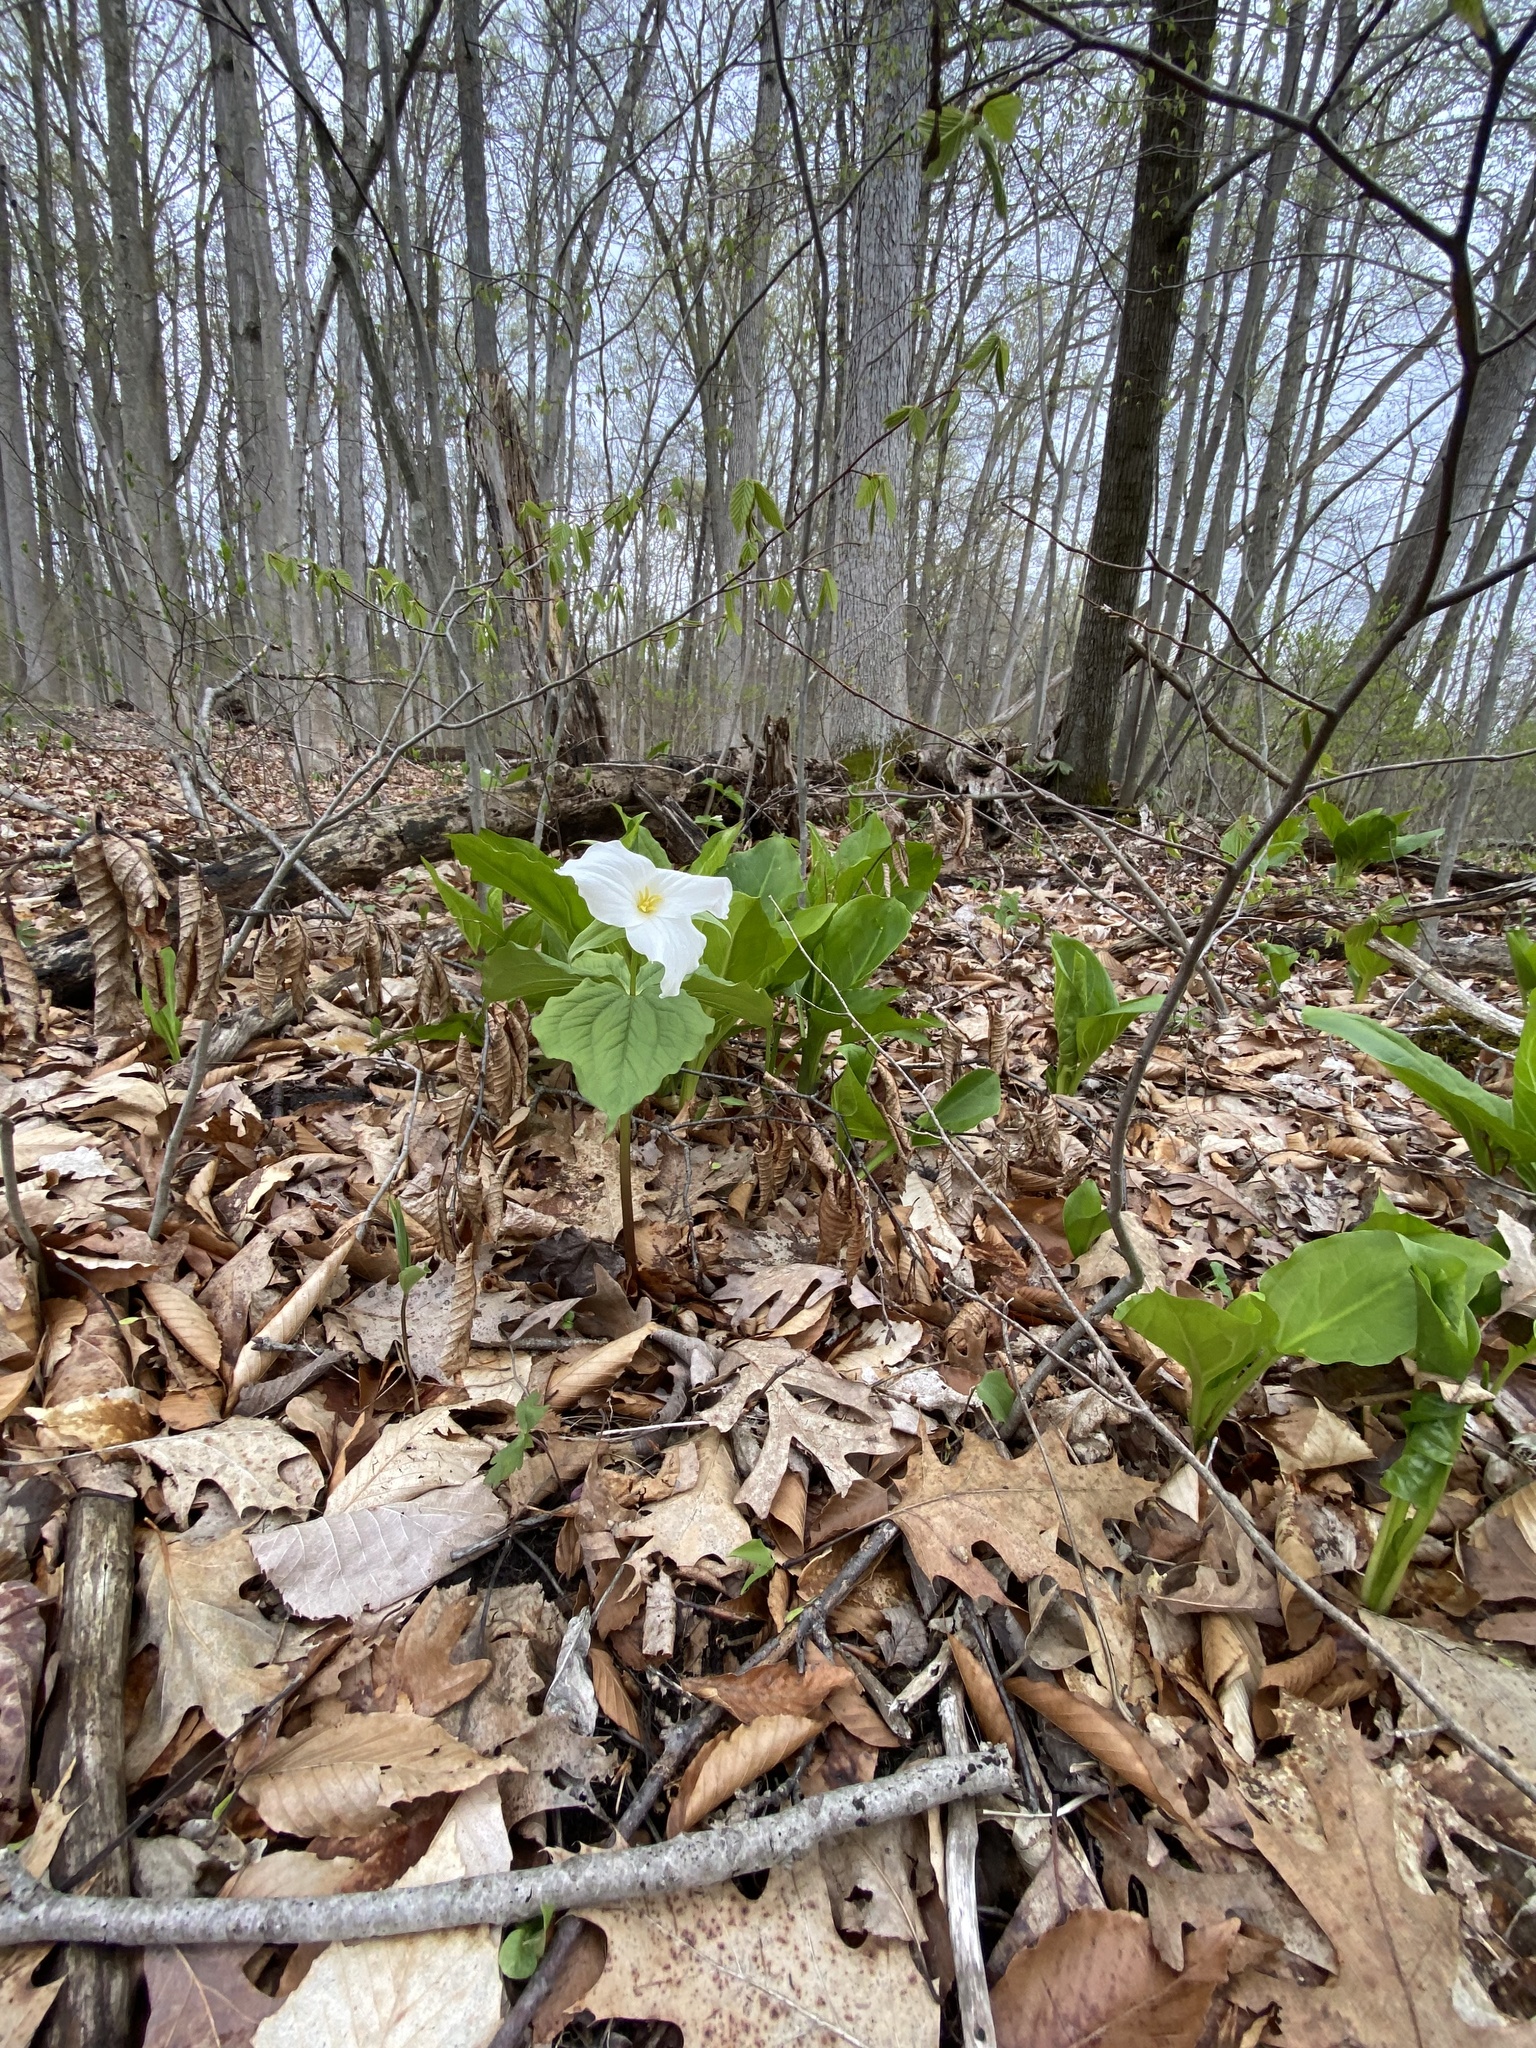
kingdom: Plantae
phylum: Tracheophyta
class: Liliopsida
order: Liliales
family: Melanthiaceae
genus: Trillium
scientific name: Trillium grandiflorum
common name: Great white trillium
